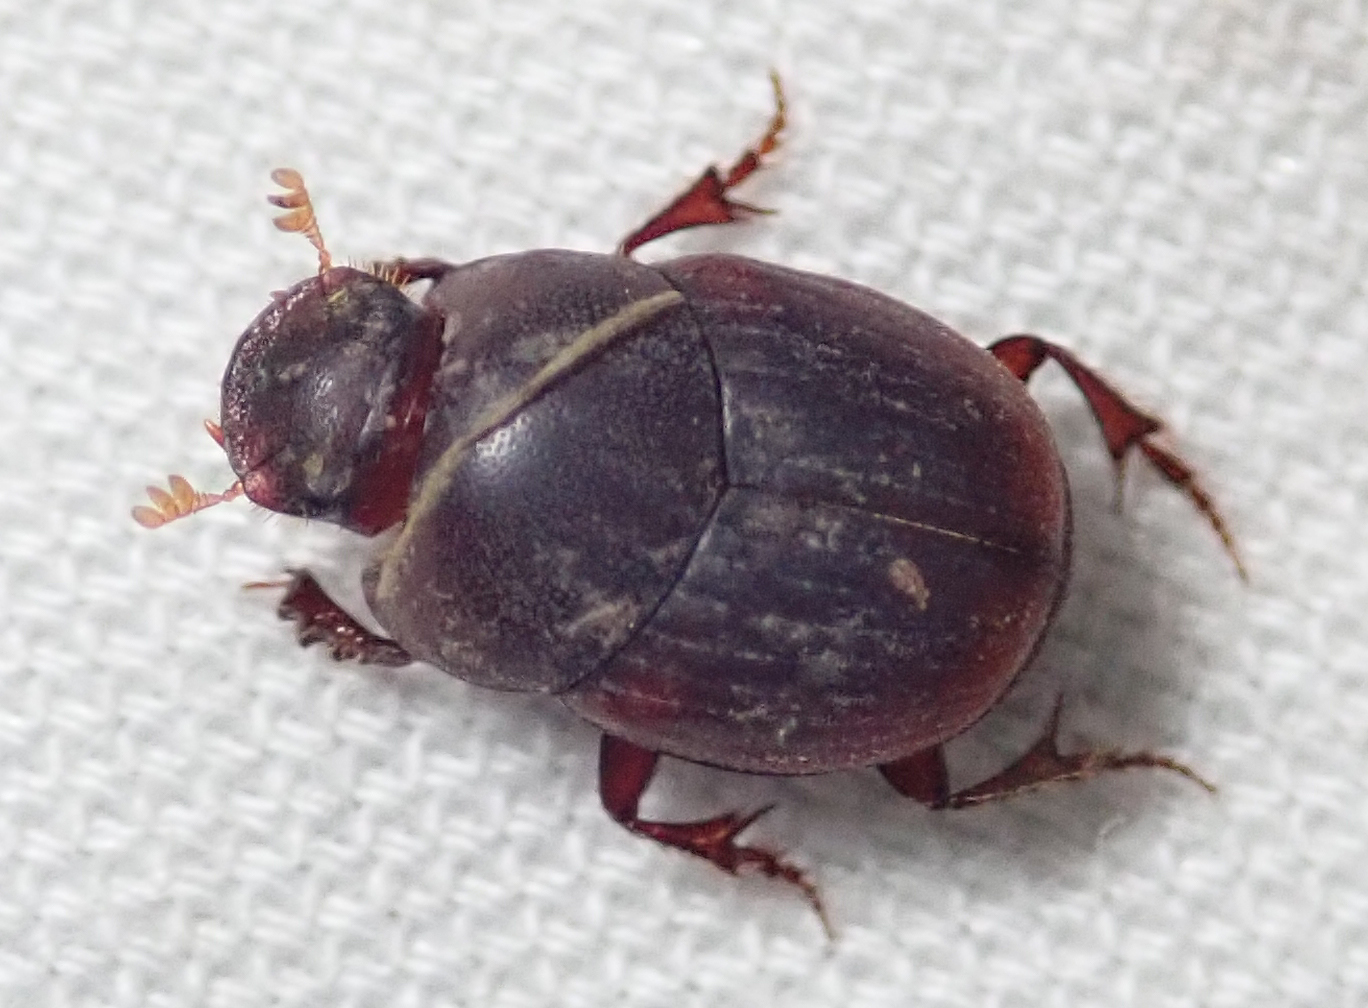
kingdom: Animalia
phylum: Arthropoda
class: Insecta
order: Coleoptera
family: Scarabaeidae
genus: Caccobius
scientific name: Caccobius ferrugineus
